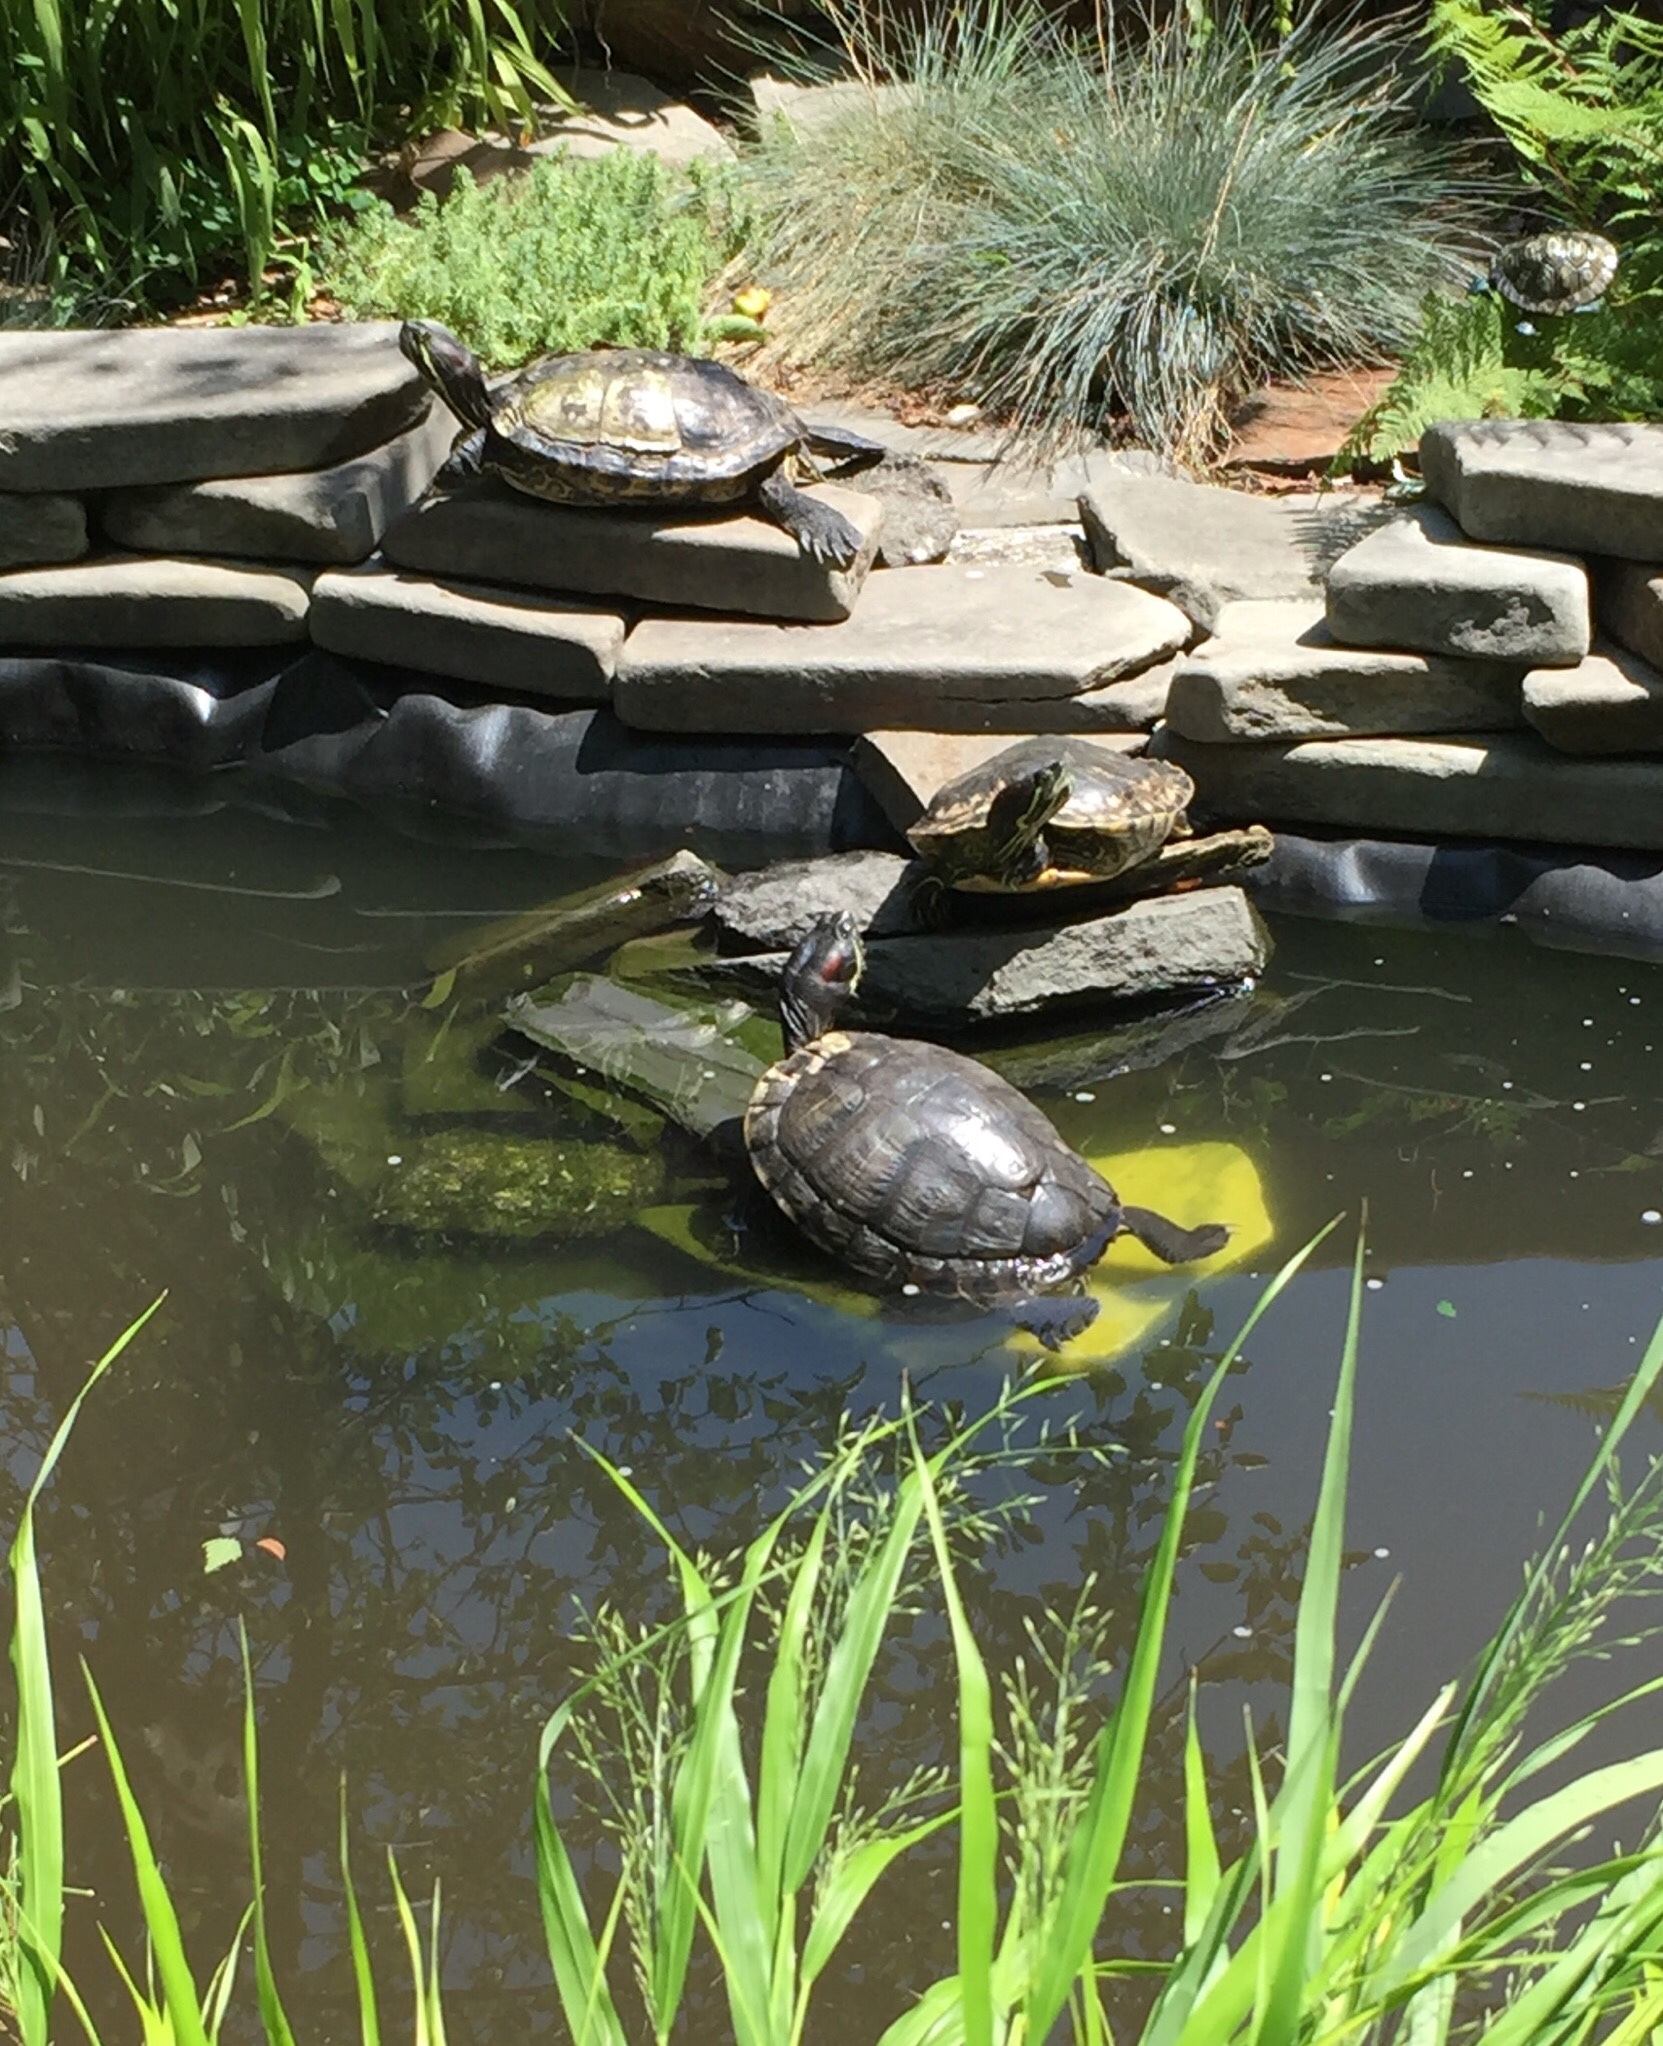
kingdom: Animalia
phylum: Chordata
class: Testudines
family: Emydidae
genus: Trachemys
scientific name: Trachemys scripta
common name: Slider
